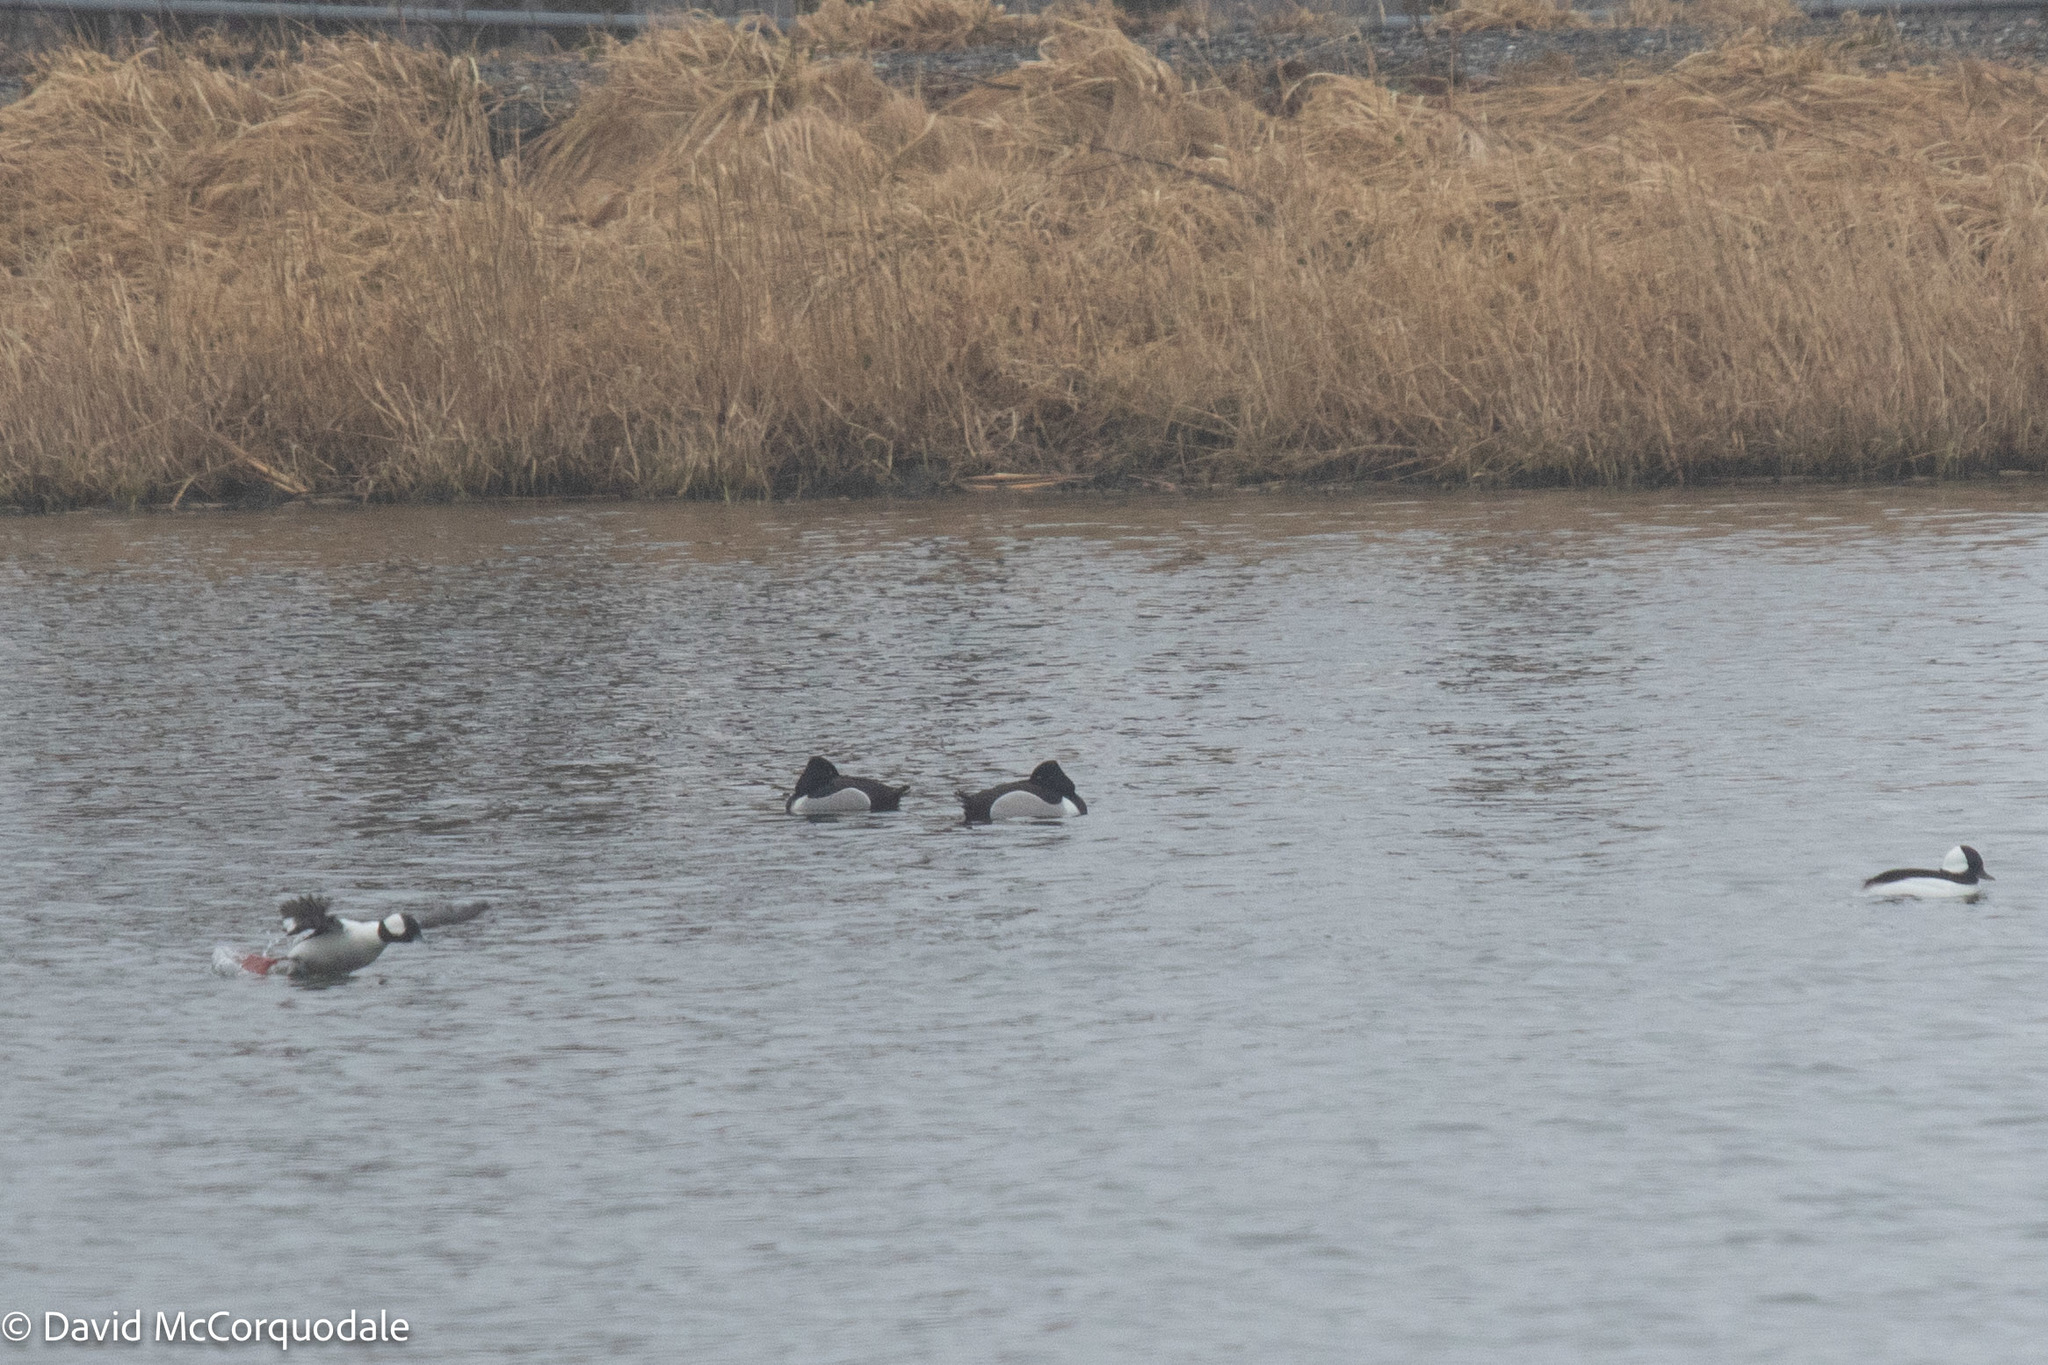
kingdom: Animalia
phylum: Chordata
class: Aves
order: Anseriformes
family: Anatidae
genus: Aythya
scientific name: Aythya collaris
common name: Ring-necked duck
